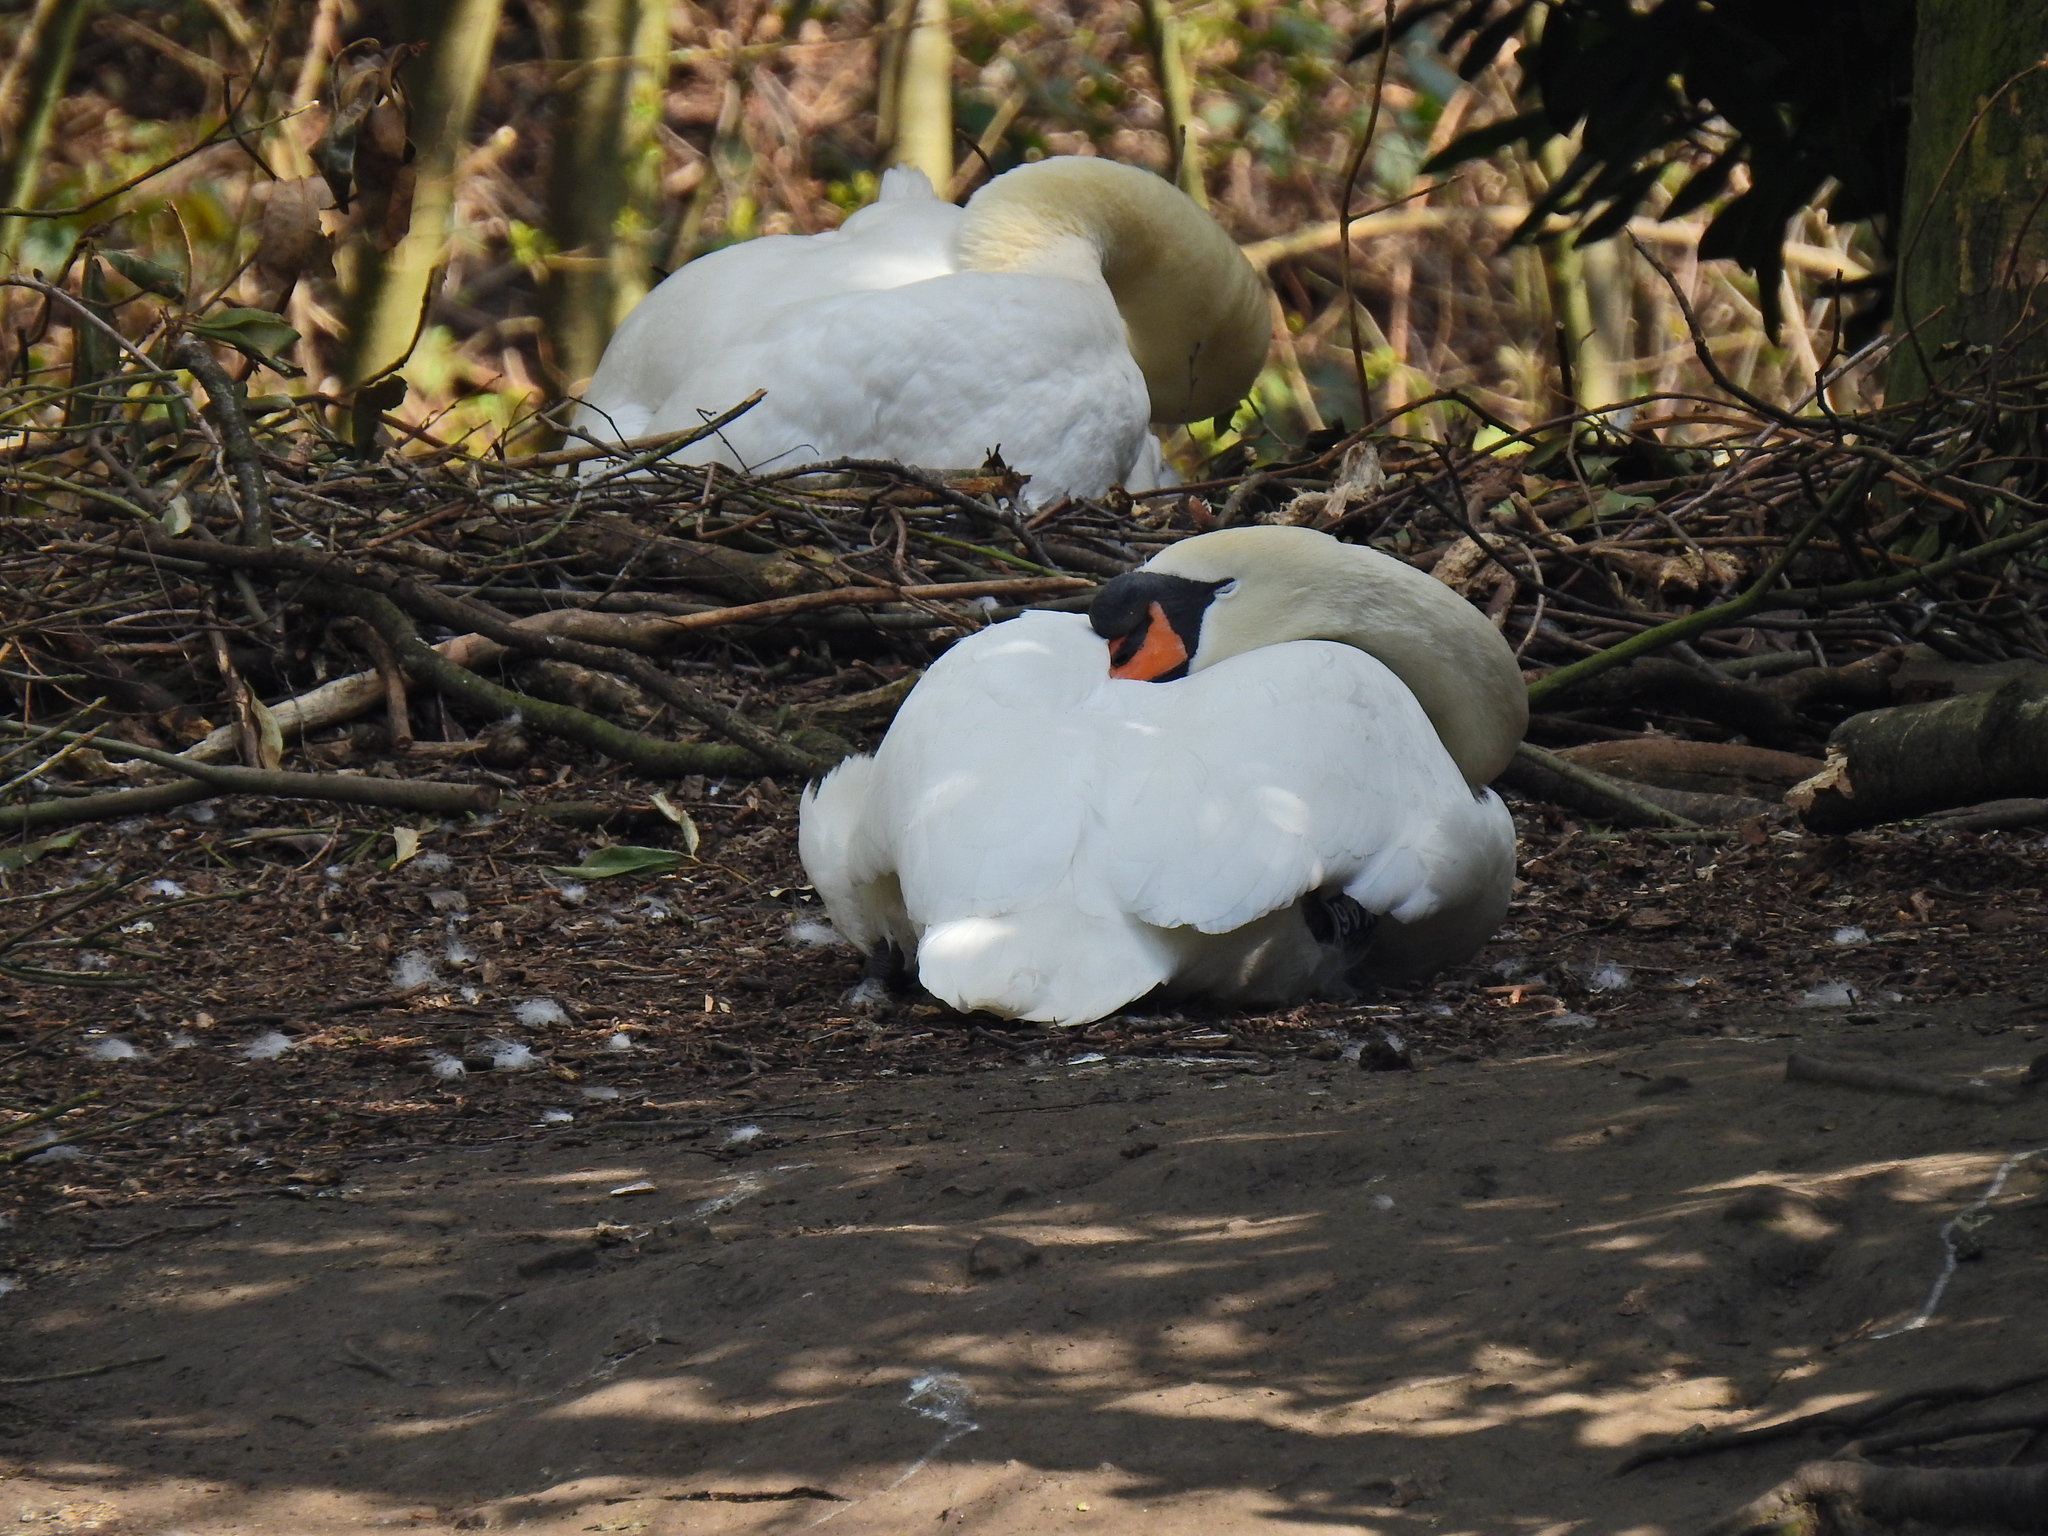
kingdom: Animalia
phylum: Chordata
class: Aves
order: Anseriformes
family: Anatidae
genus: Cygnus
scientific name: Cygnus olor
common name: Mute swan
